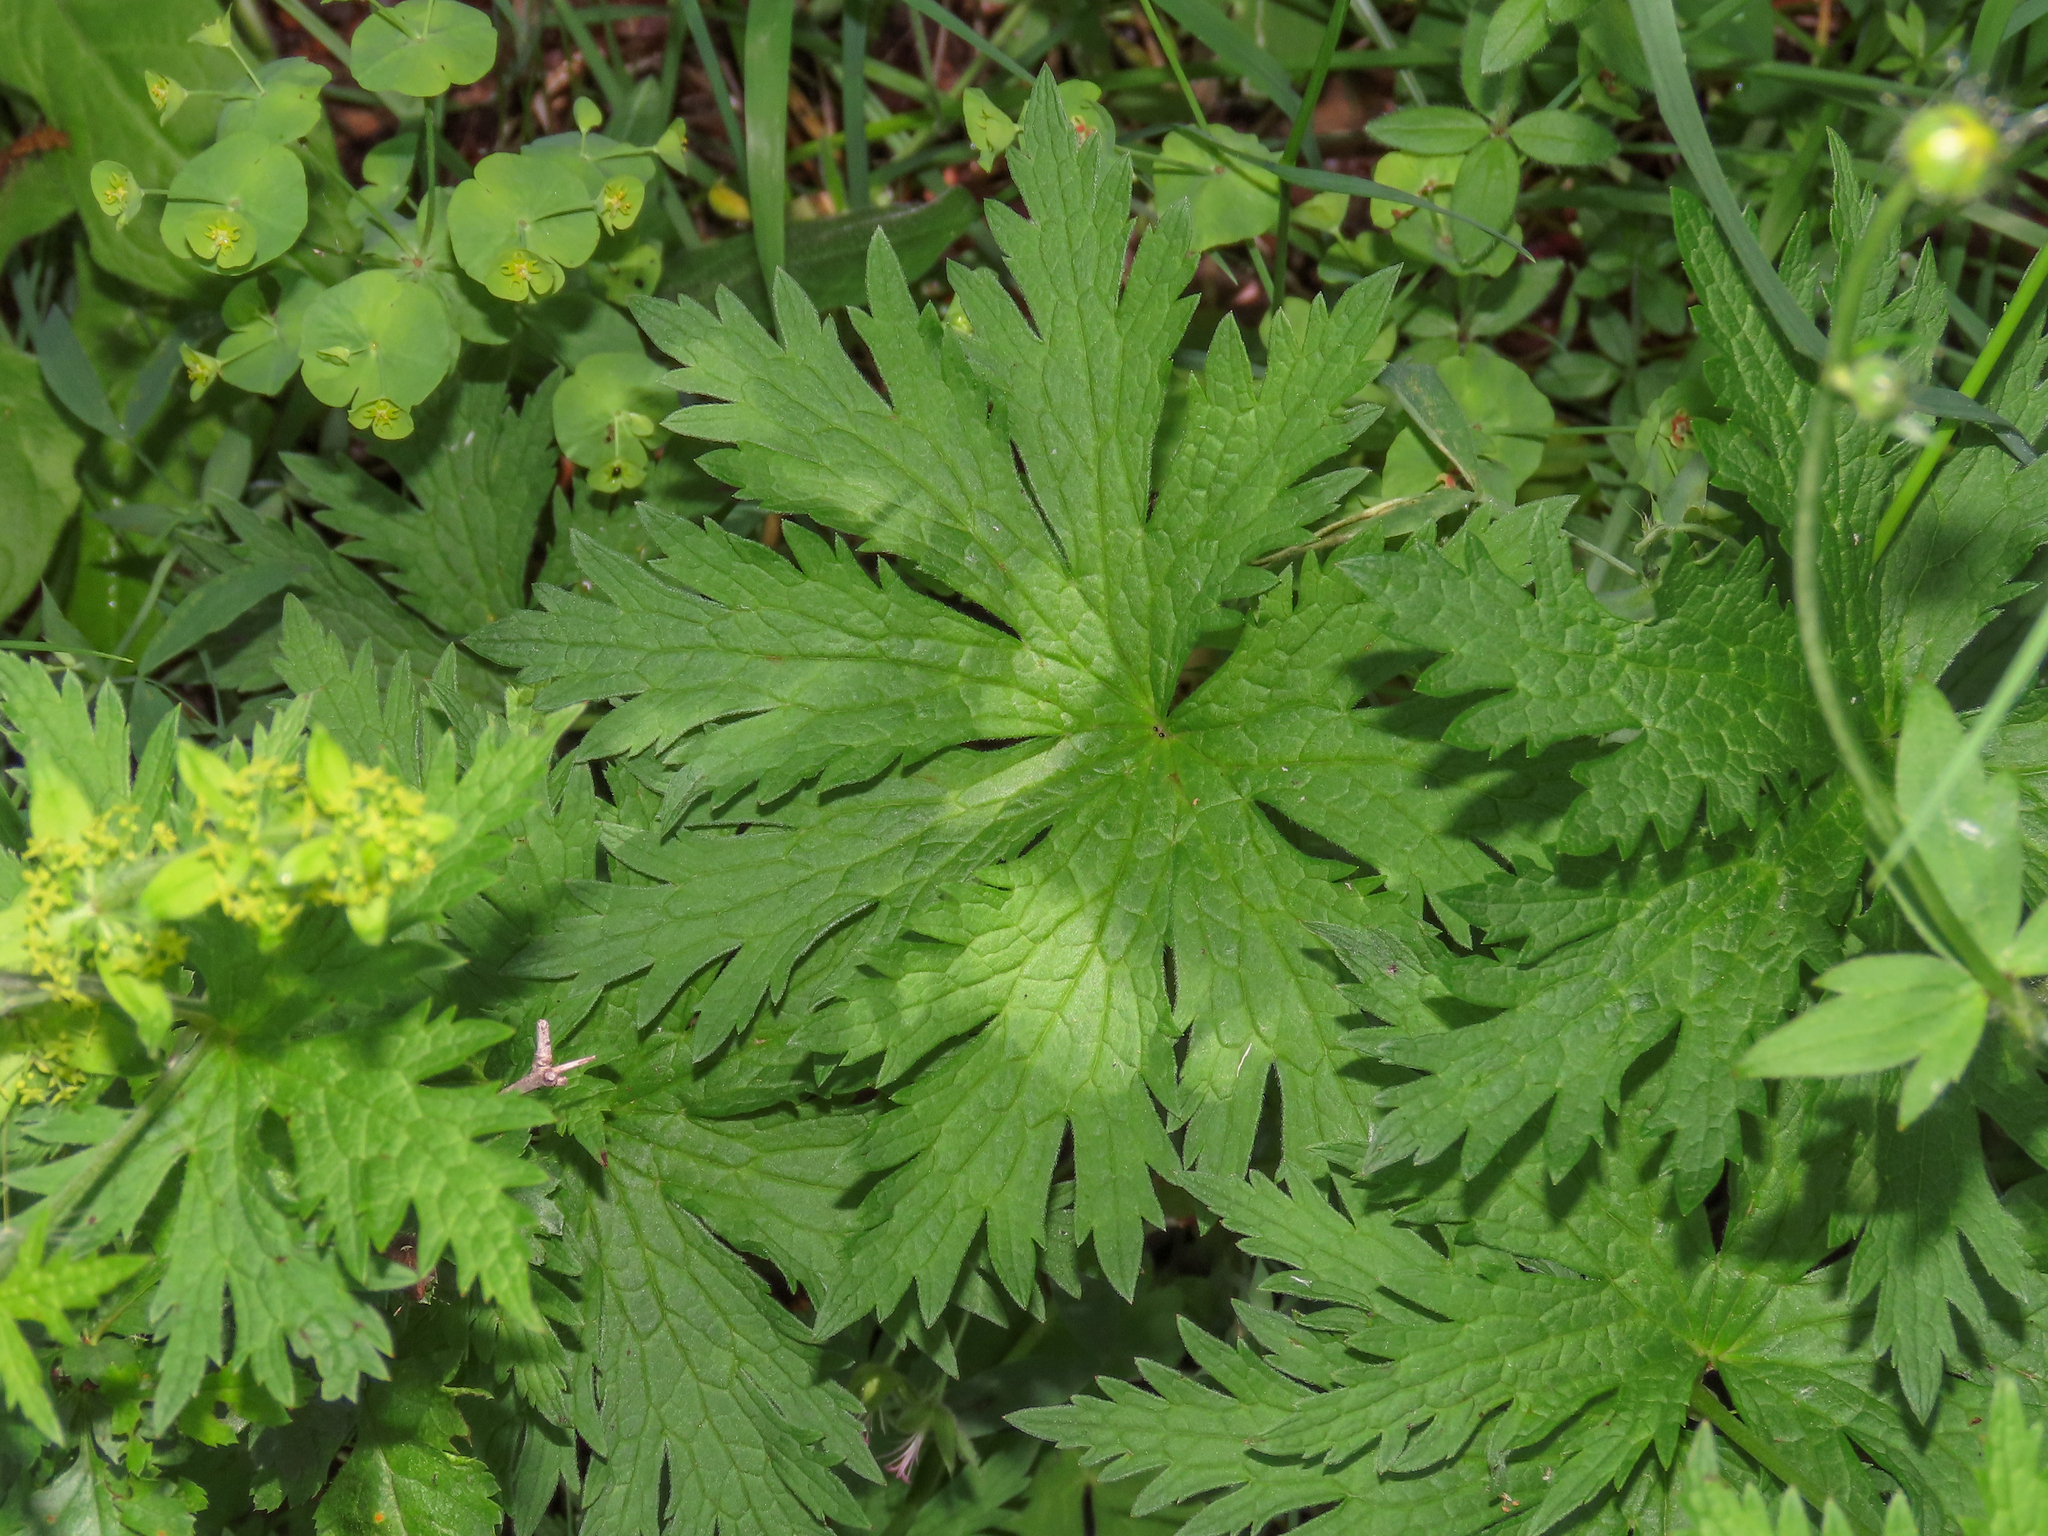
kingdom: Plantae
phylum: Tracheophyta
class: Magnoliopsida
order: Geraniales
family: Geraniaceae
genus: Geranium
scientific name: Geranium sylvaticum
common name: Wood crane's-bill
